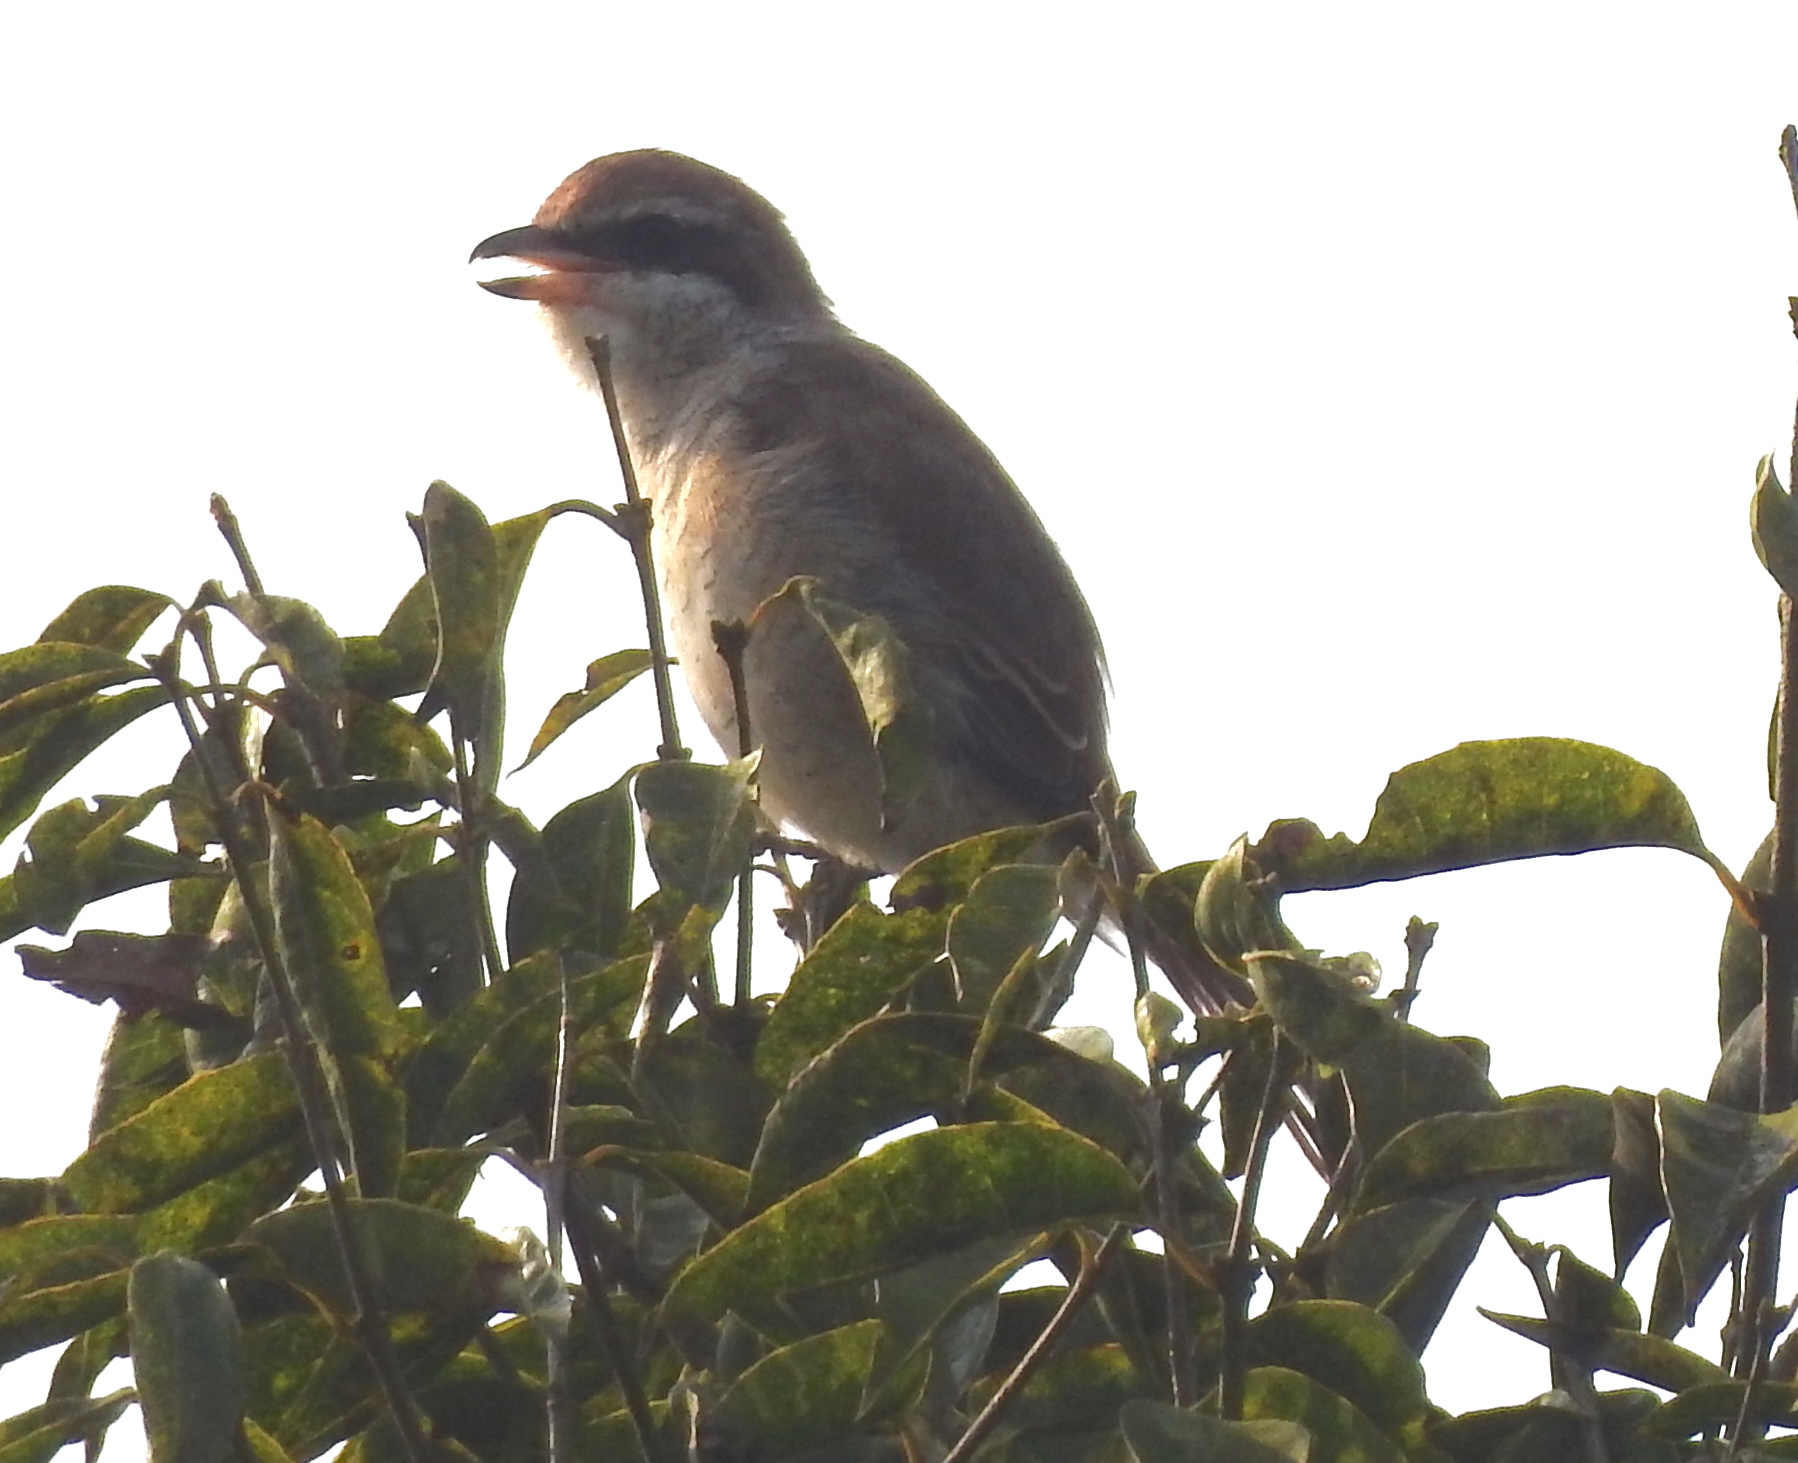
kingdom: Animalia
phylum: Chordata
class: Aves
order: Passeriformes
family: Laniidae
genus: Lanius
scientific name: Lanius cristatus
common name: Brown shrike
